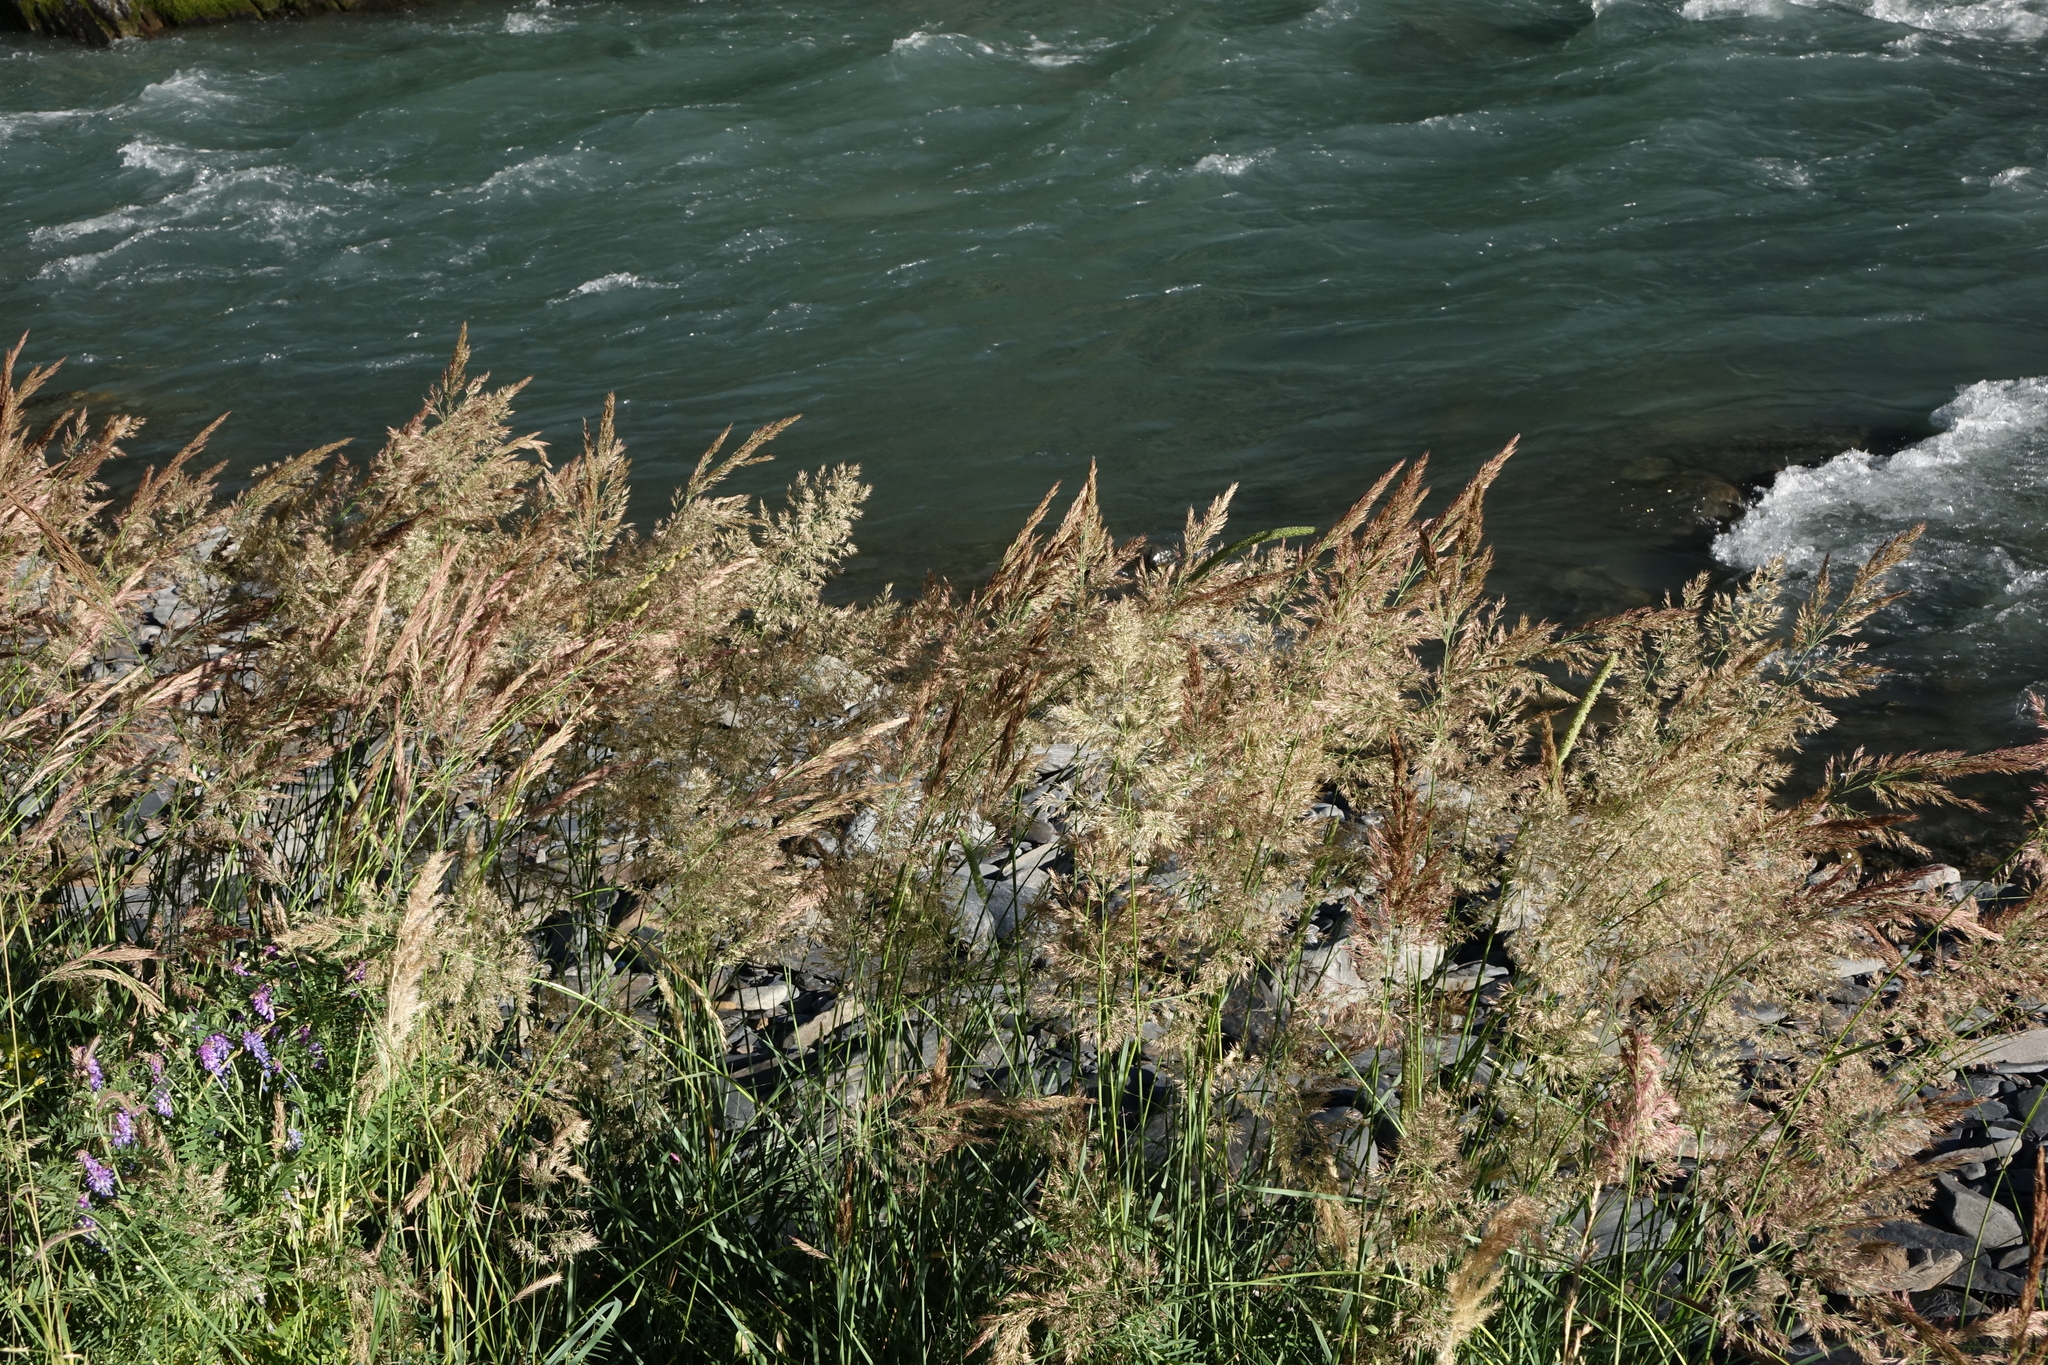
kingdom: Plantae
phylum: Tracheophyta
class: Liliopsida
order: Poales
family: Poaceae
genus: Calamagrostis
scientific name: Calamagrostis epigejos
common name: Wood small-reed
